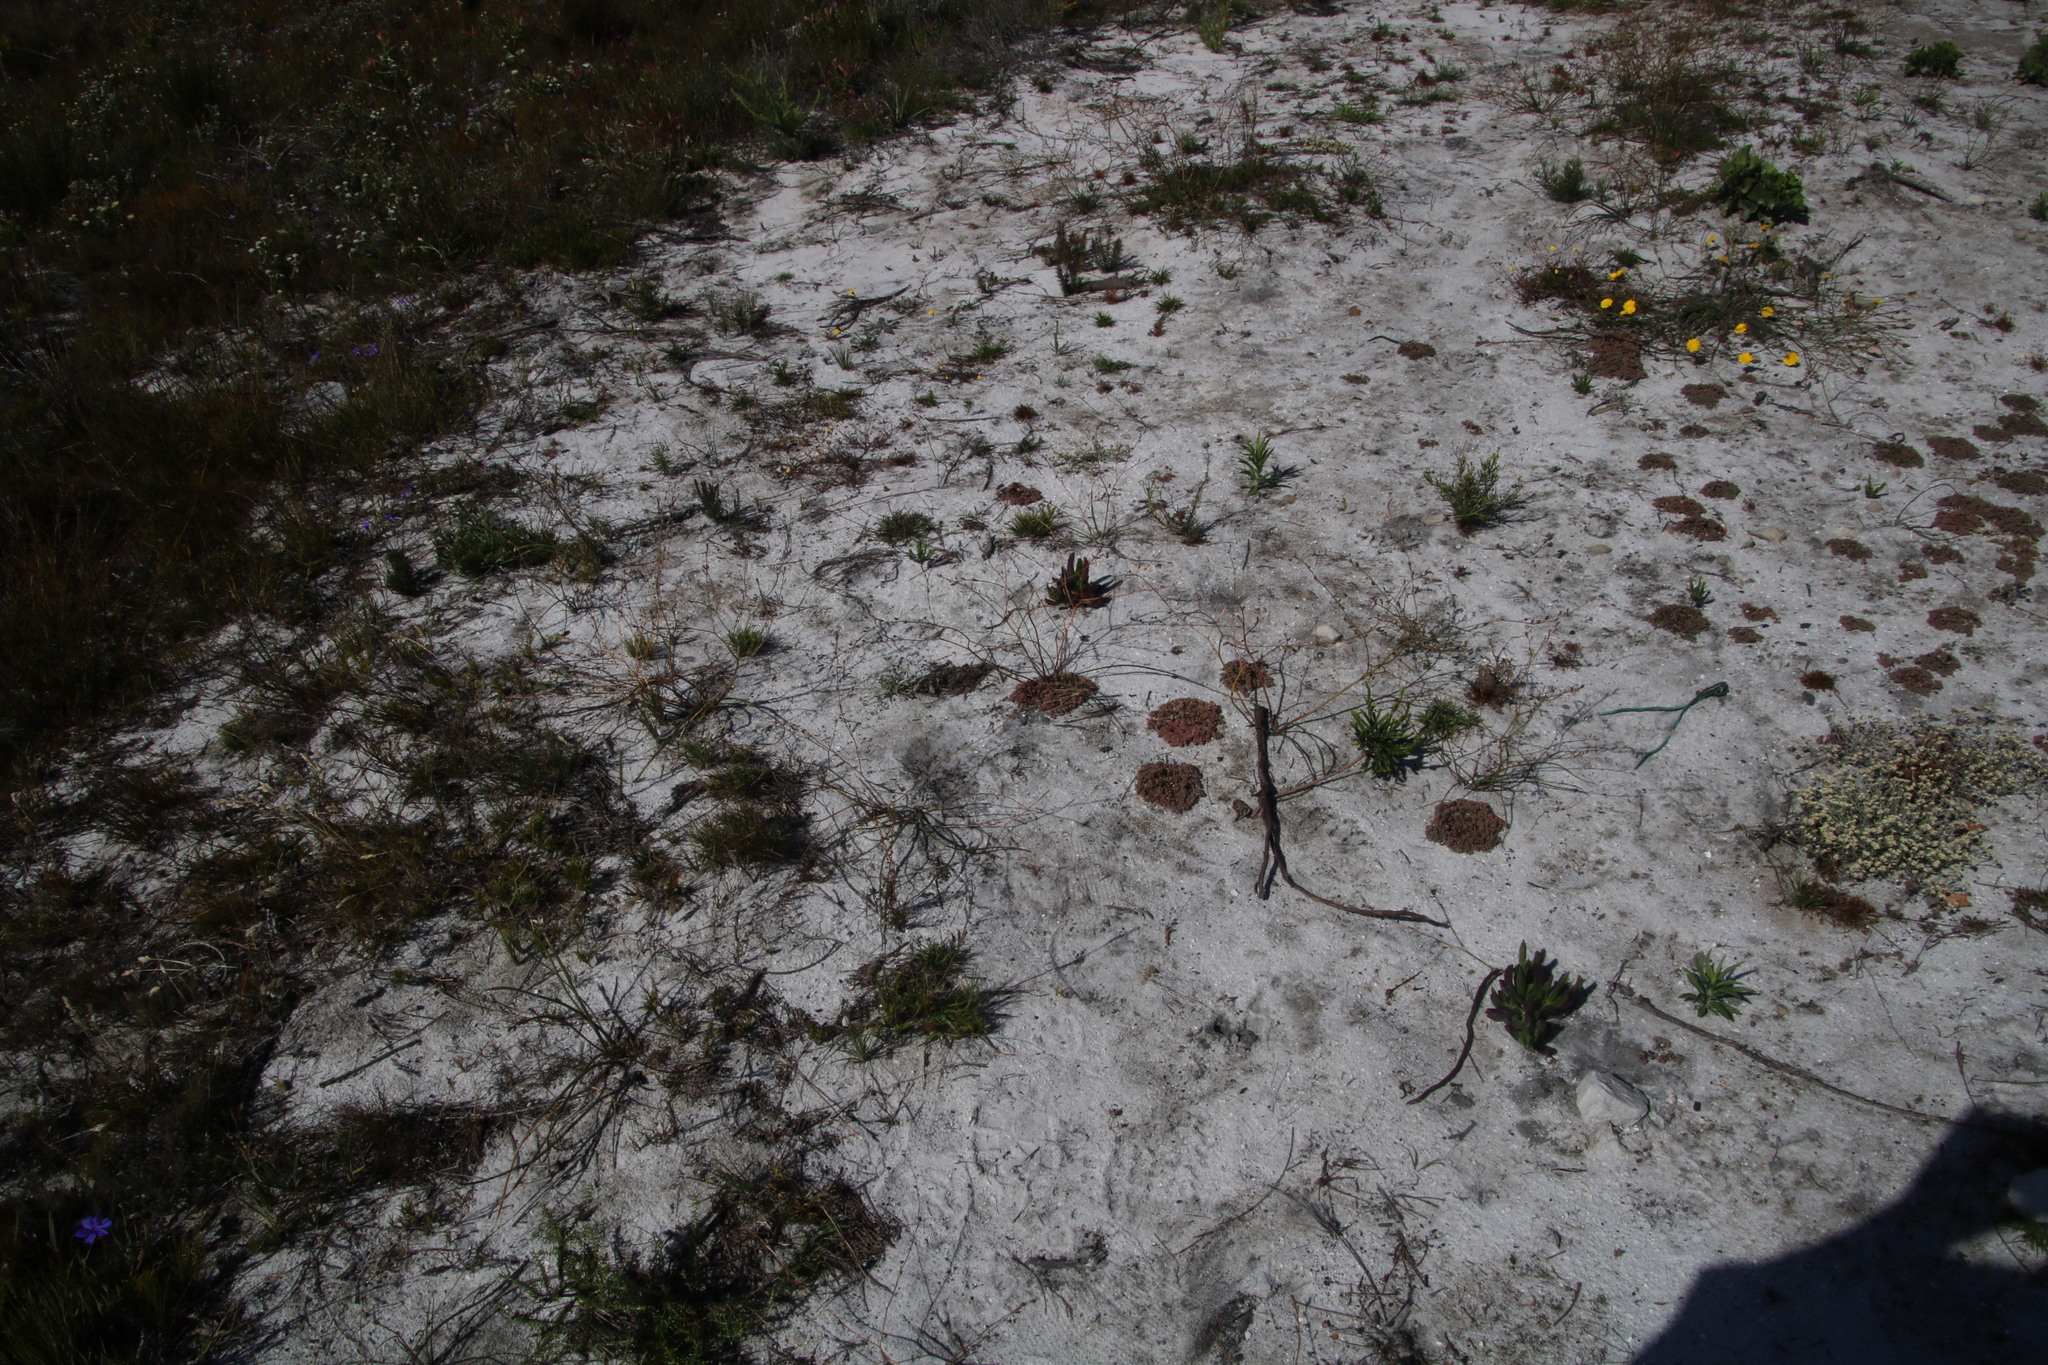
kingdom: Plantae
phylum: Tracheophyta
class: Liliopsida
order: Asparagales
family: Asphodelaceae
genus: Trachyandra
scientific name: Trachyandra divaricata
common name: Dune onionweed
